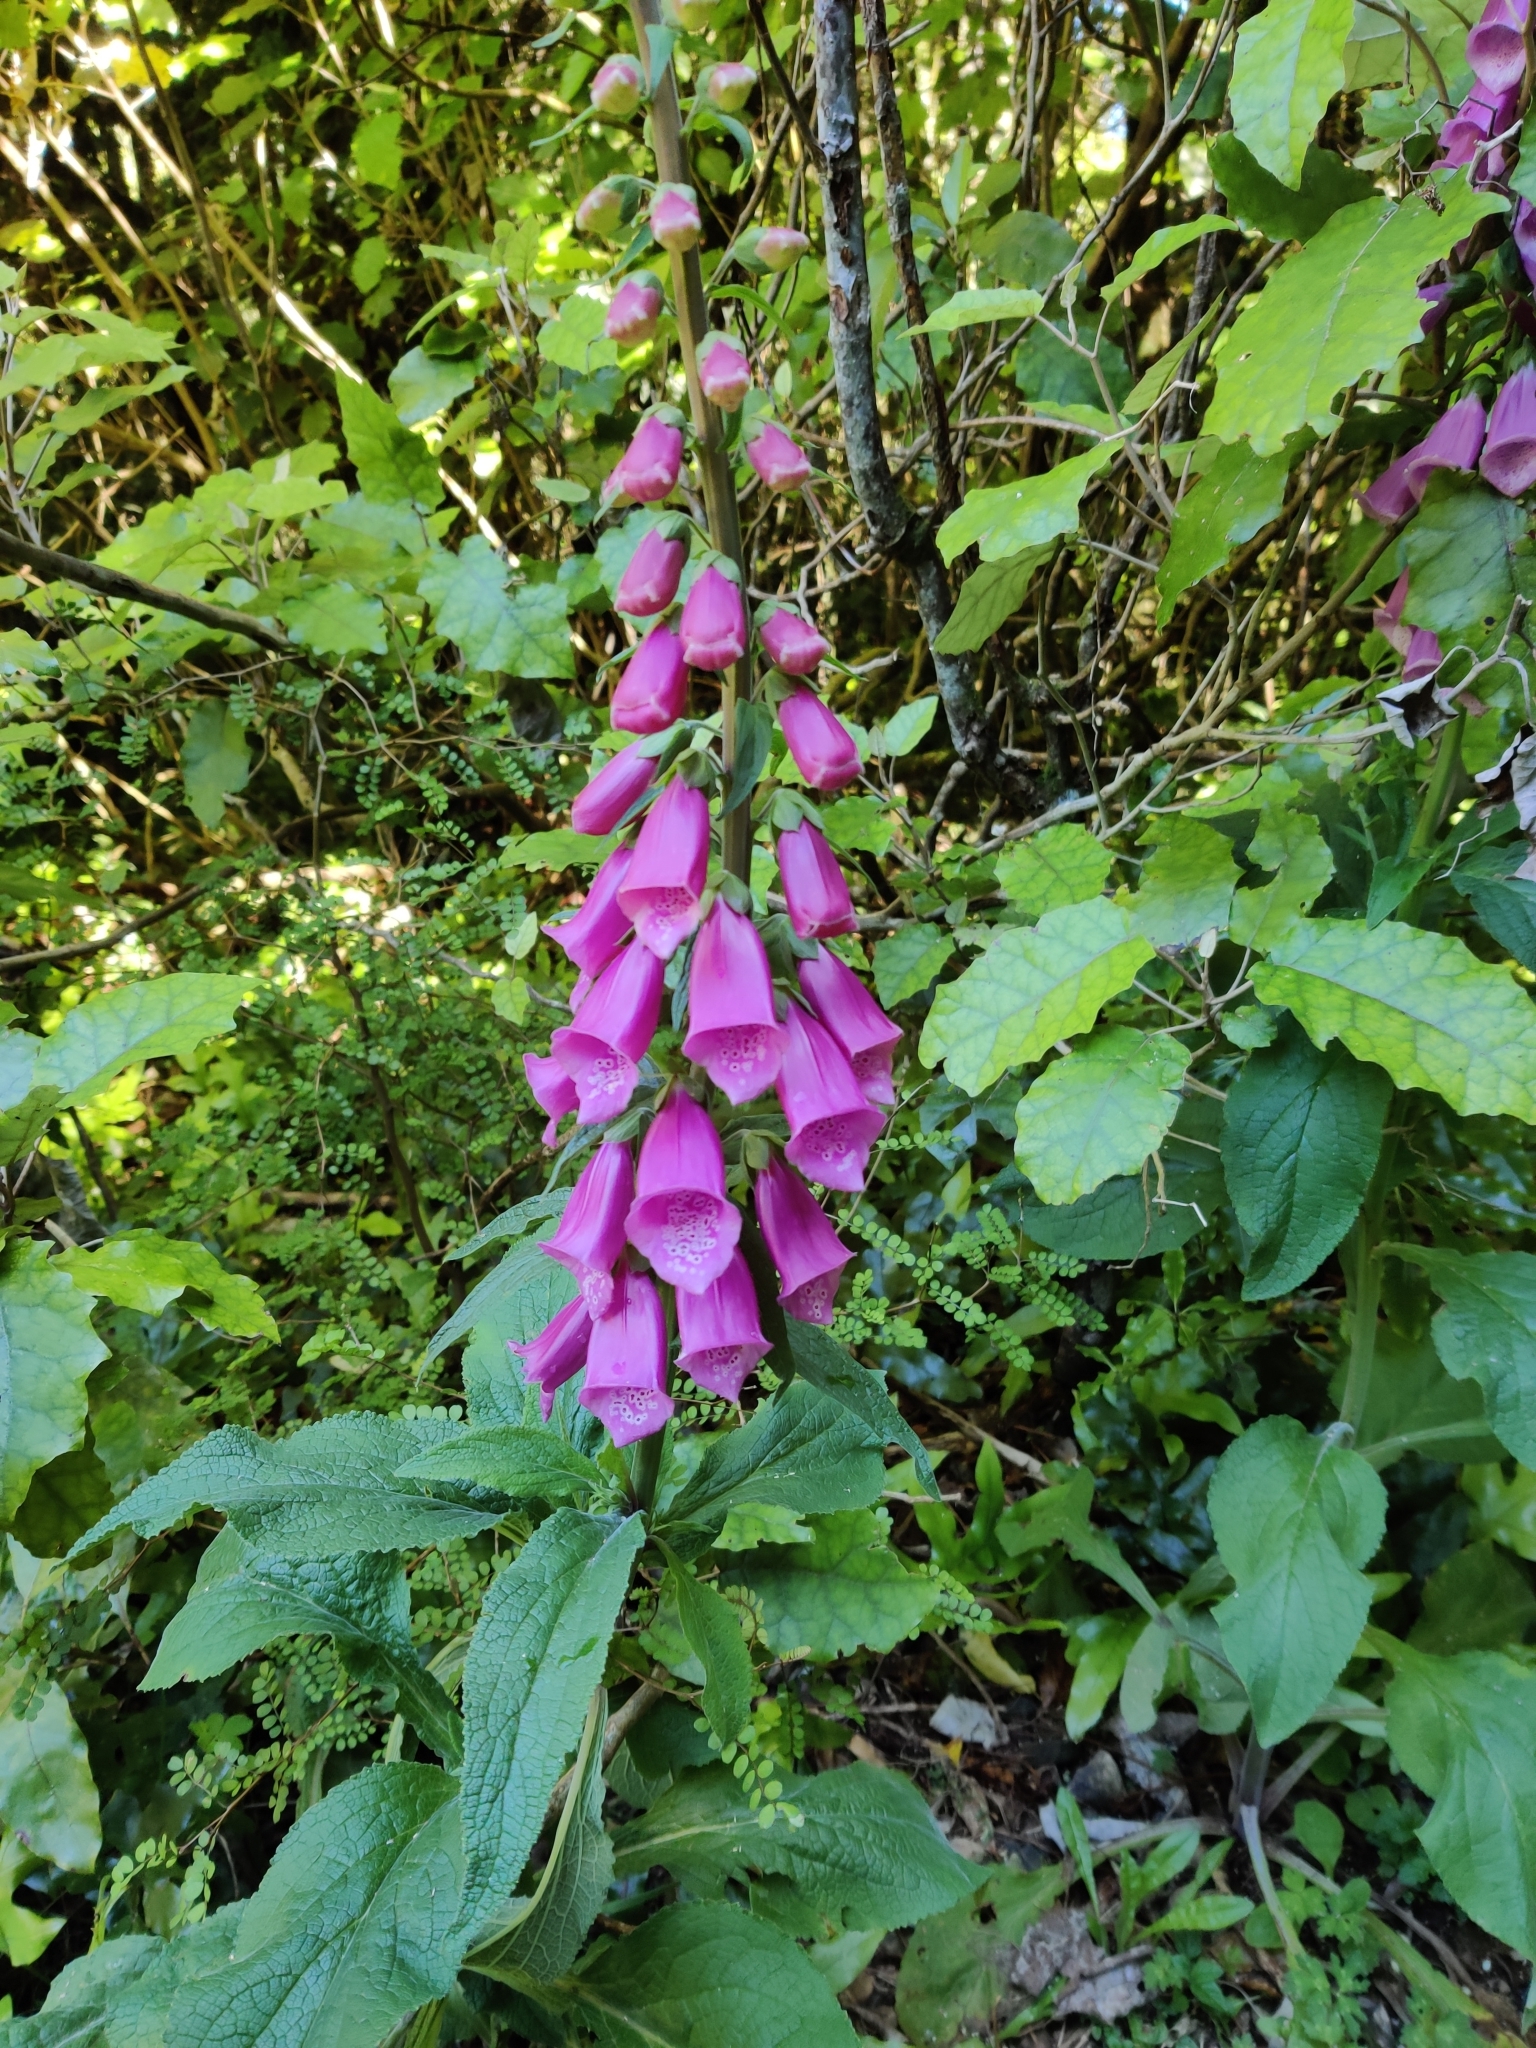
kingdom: Plantae
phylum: Tracheophyta
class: Magnoliopsida
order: Lamiales
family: Plantaginaceae
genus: Digitalis
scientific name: Digitalis purpurea
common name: Foxglove
